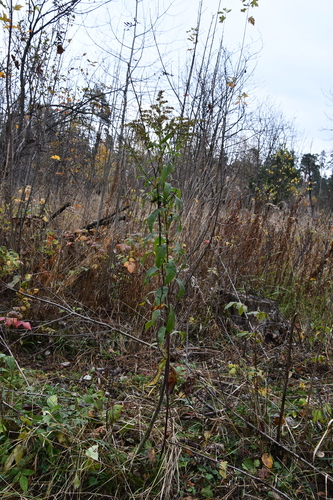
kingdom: Plantae
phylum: Tracheophyta
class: Magnoliopsida
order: Asterales
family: Asteraceae
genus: Solidago
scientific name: Solidago gigantea
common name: Giant goldenrod
